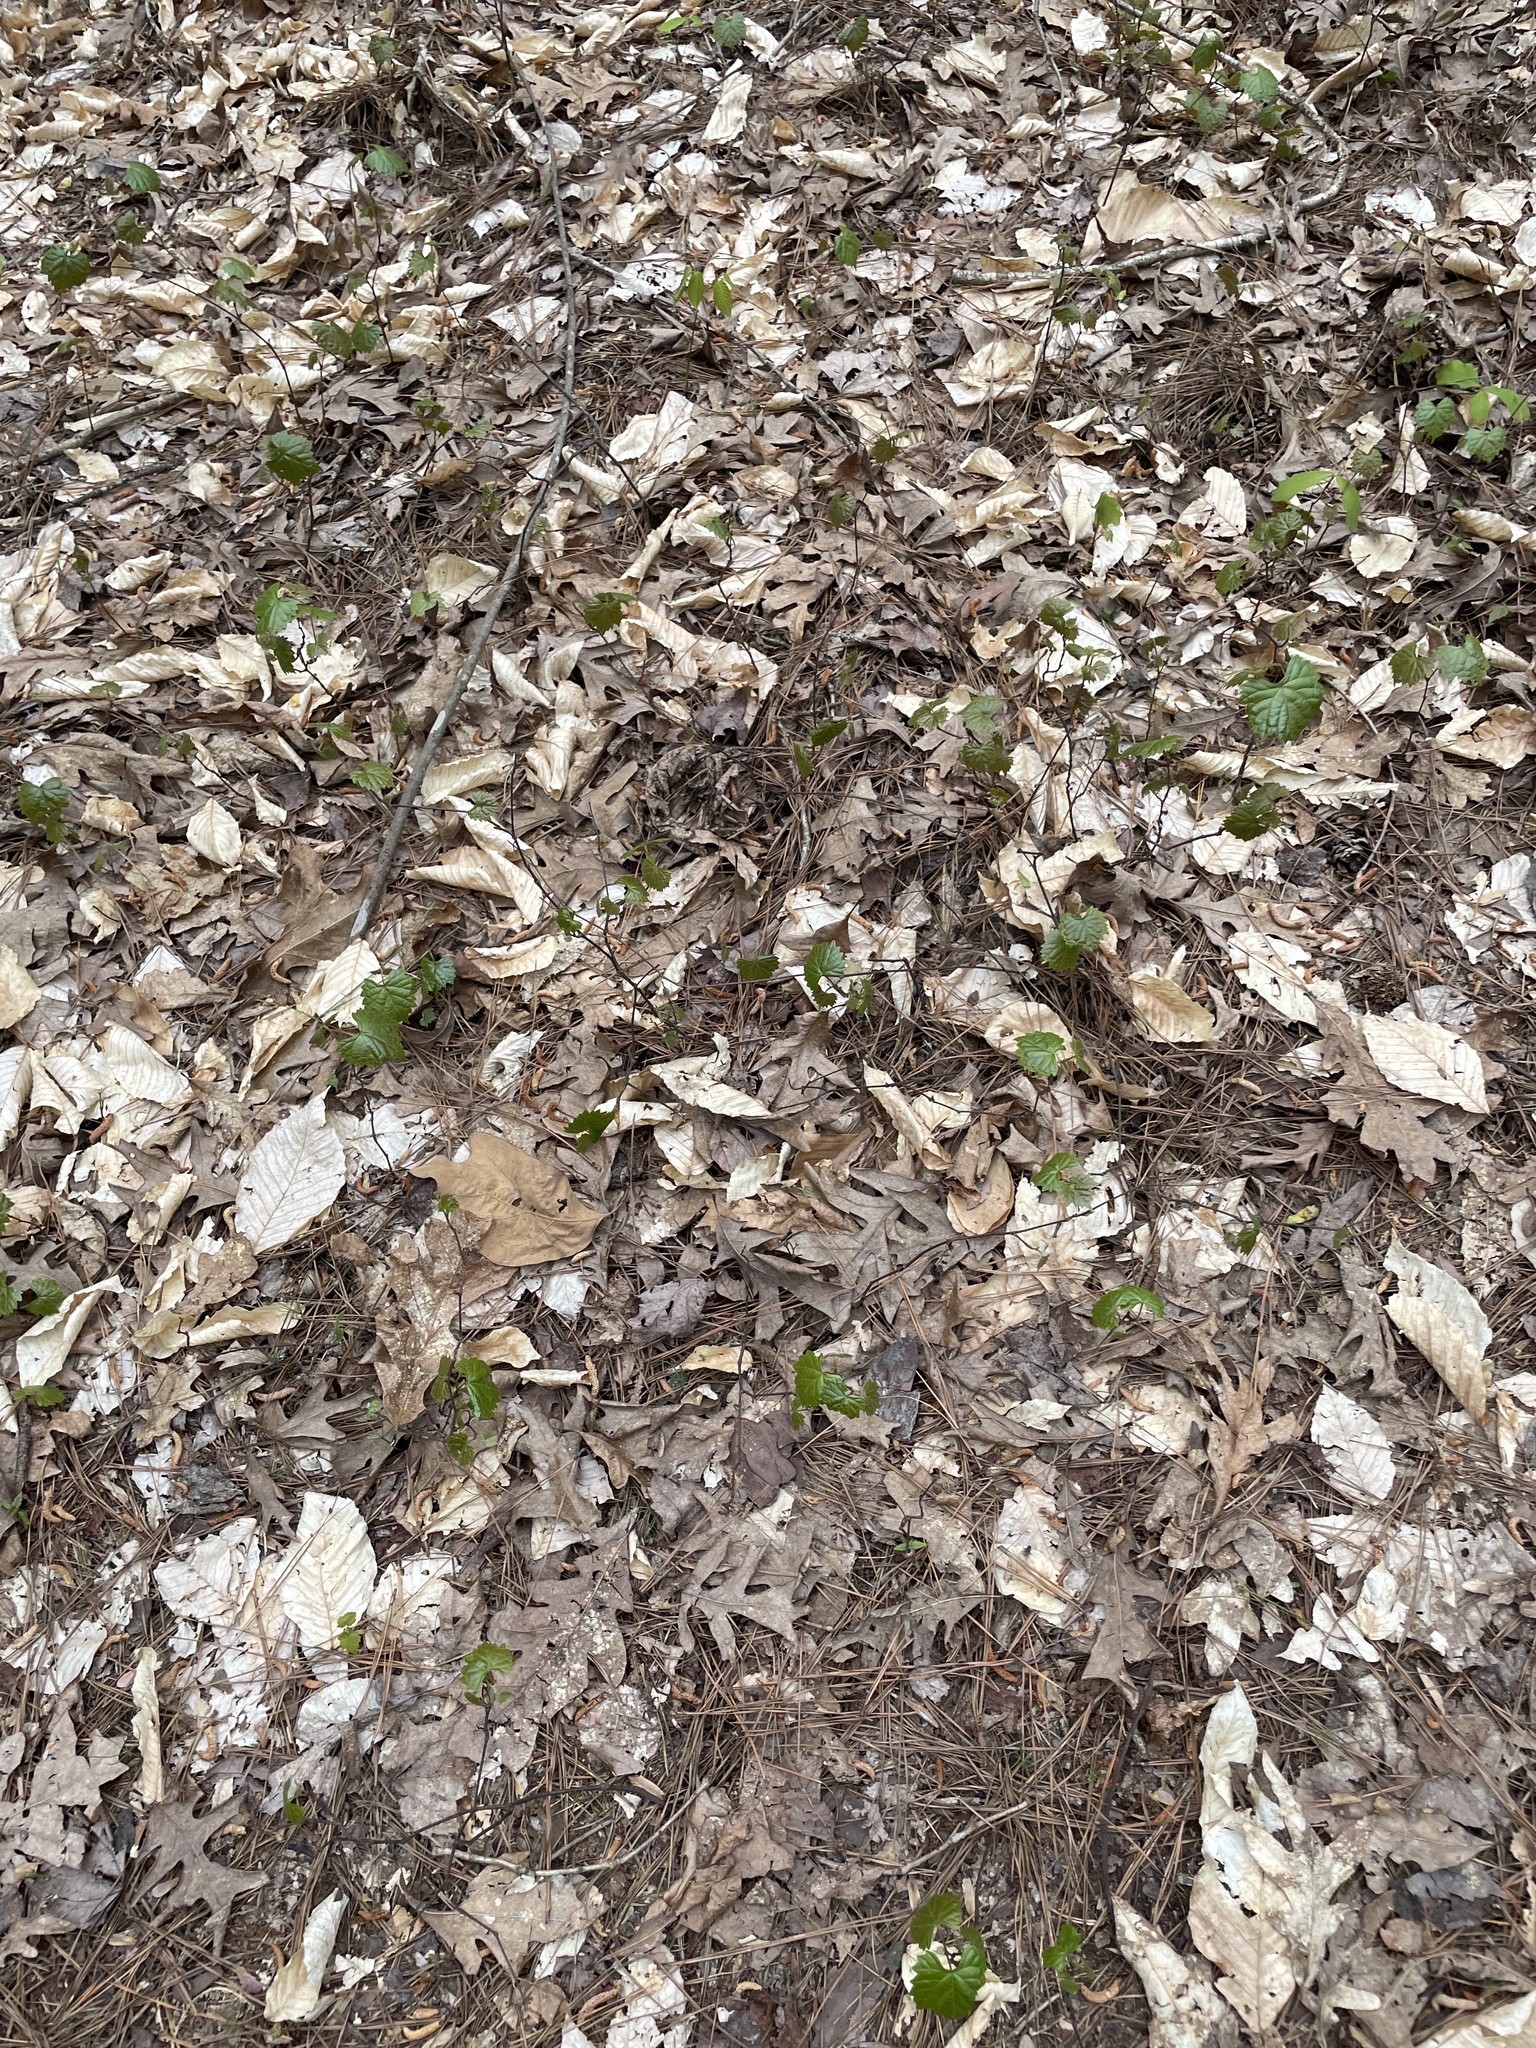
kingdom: Plantae
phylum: Tracheophyta
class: Magnoliopsida
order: Vitales
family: Vitaceae
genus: Vitis
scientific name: Vitis rotundifolia
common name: Muscadine grape
